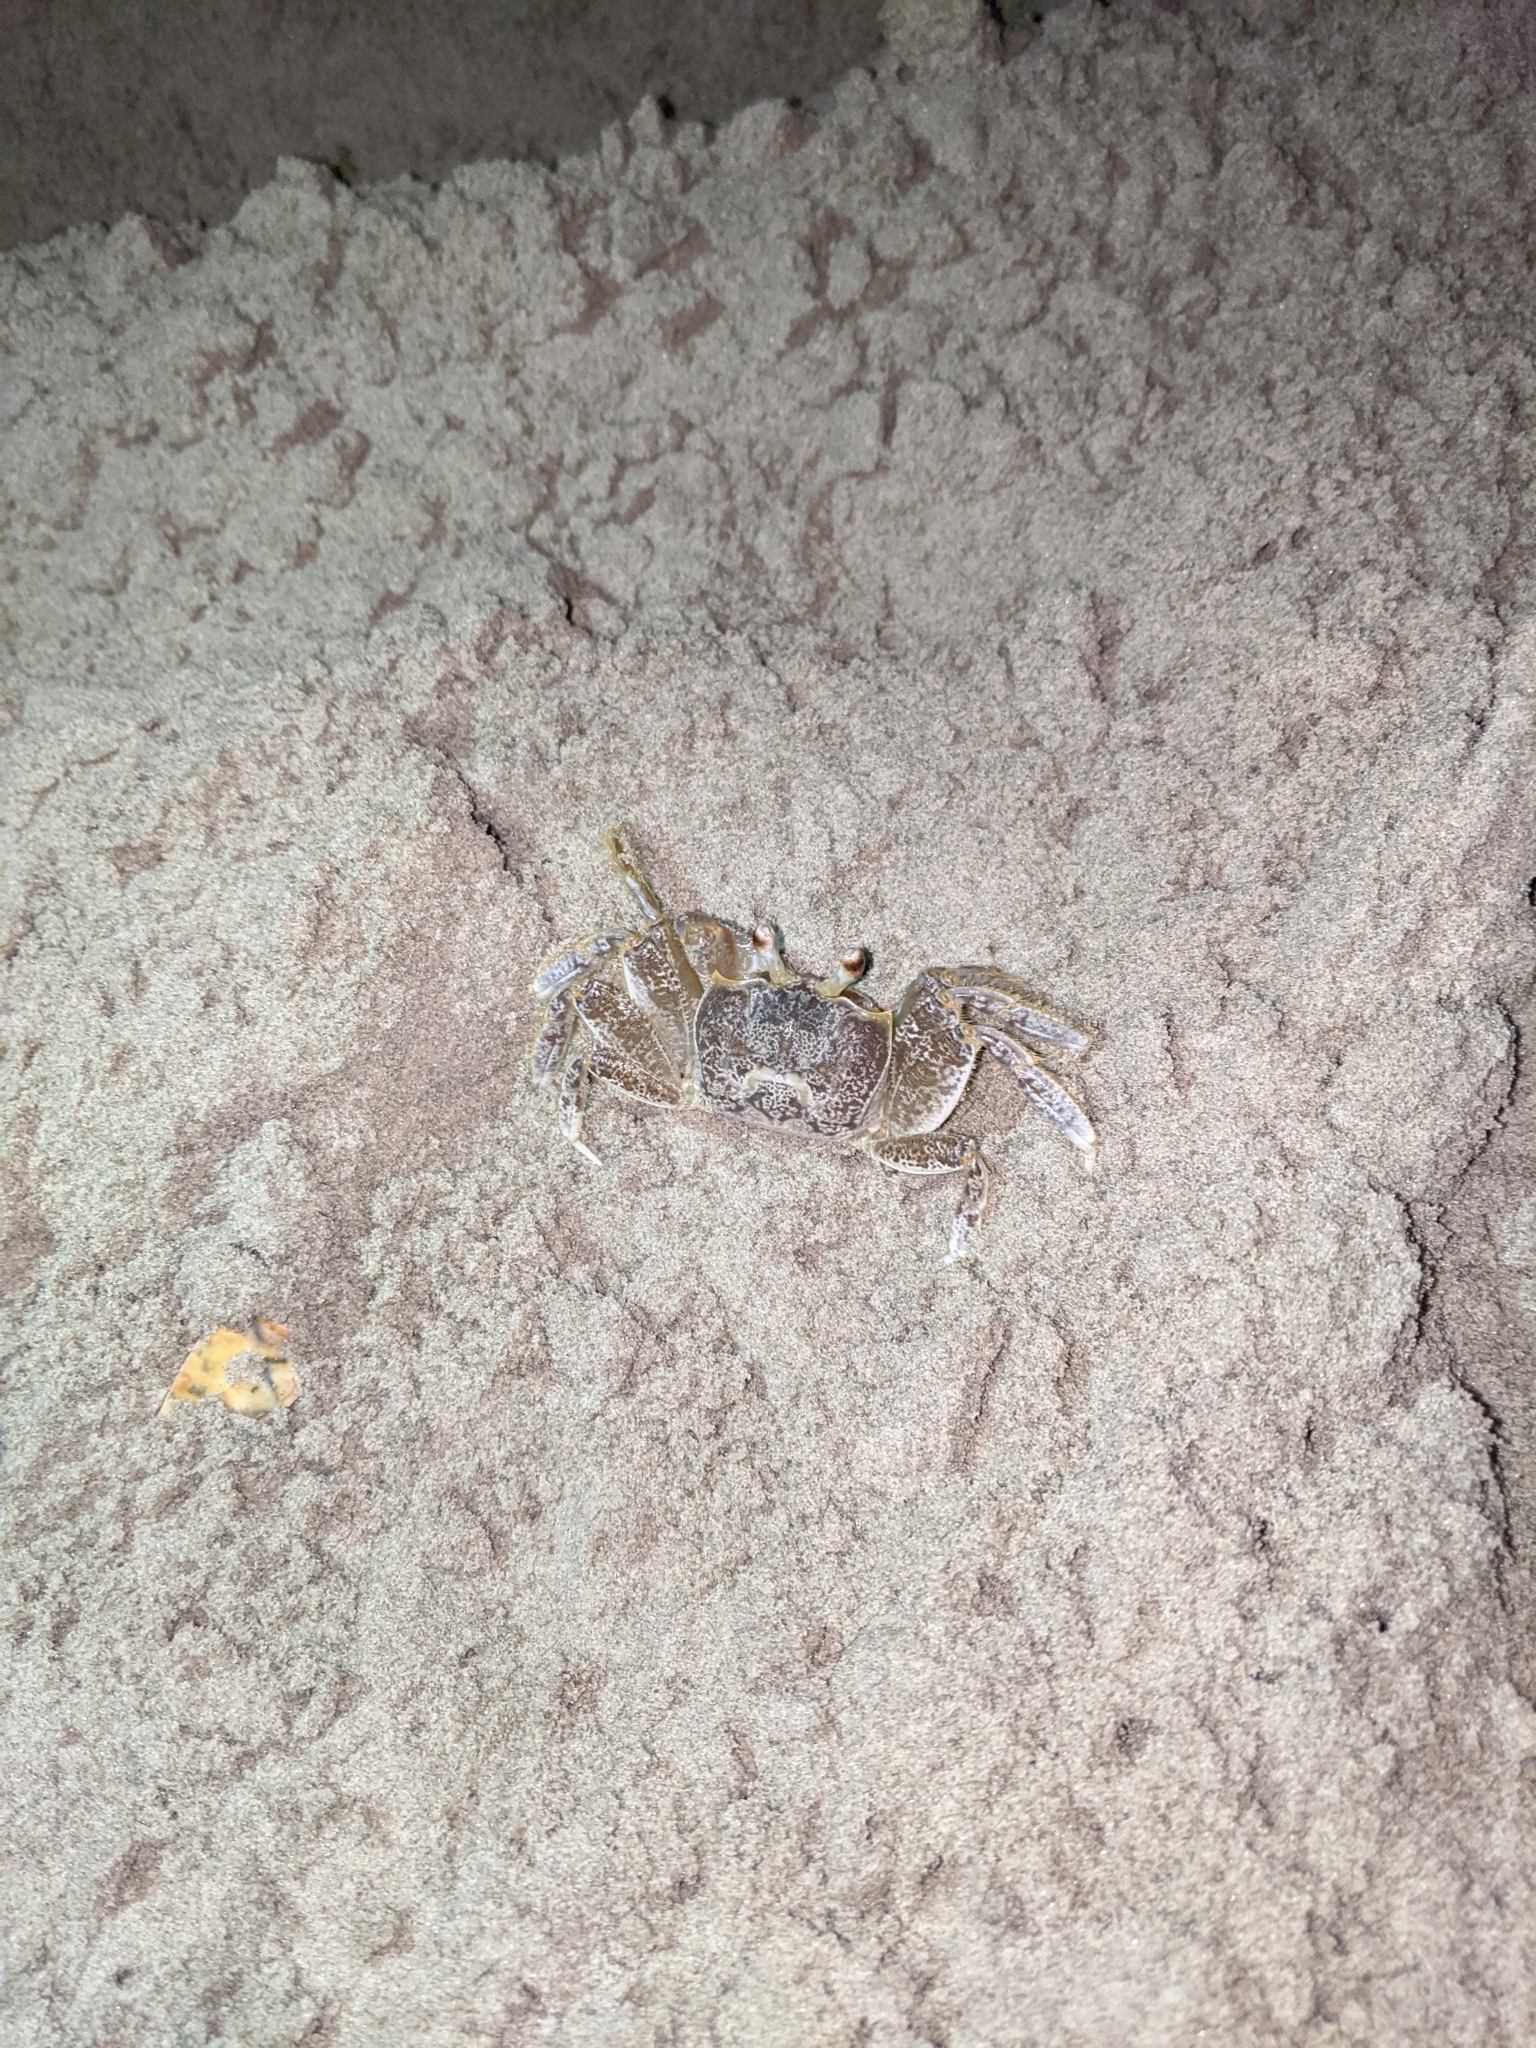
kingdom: Animalia
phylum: Arthropoda
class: Malacostraca
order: Decapoda
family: Ocypodidae
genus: Ocypode
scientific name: Ocypode quadrata
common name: Ghost crab
